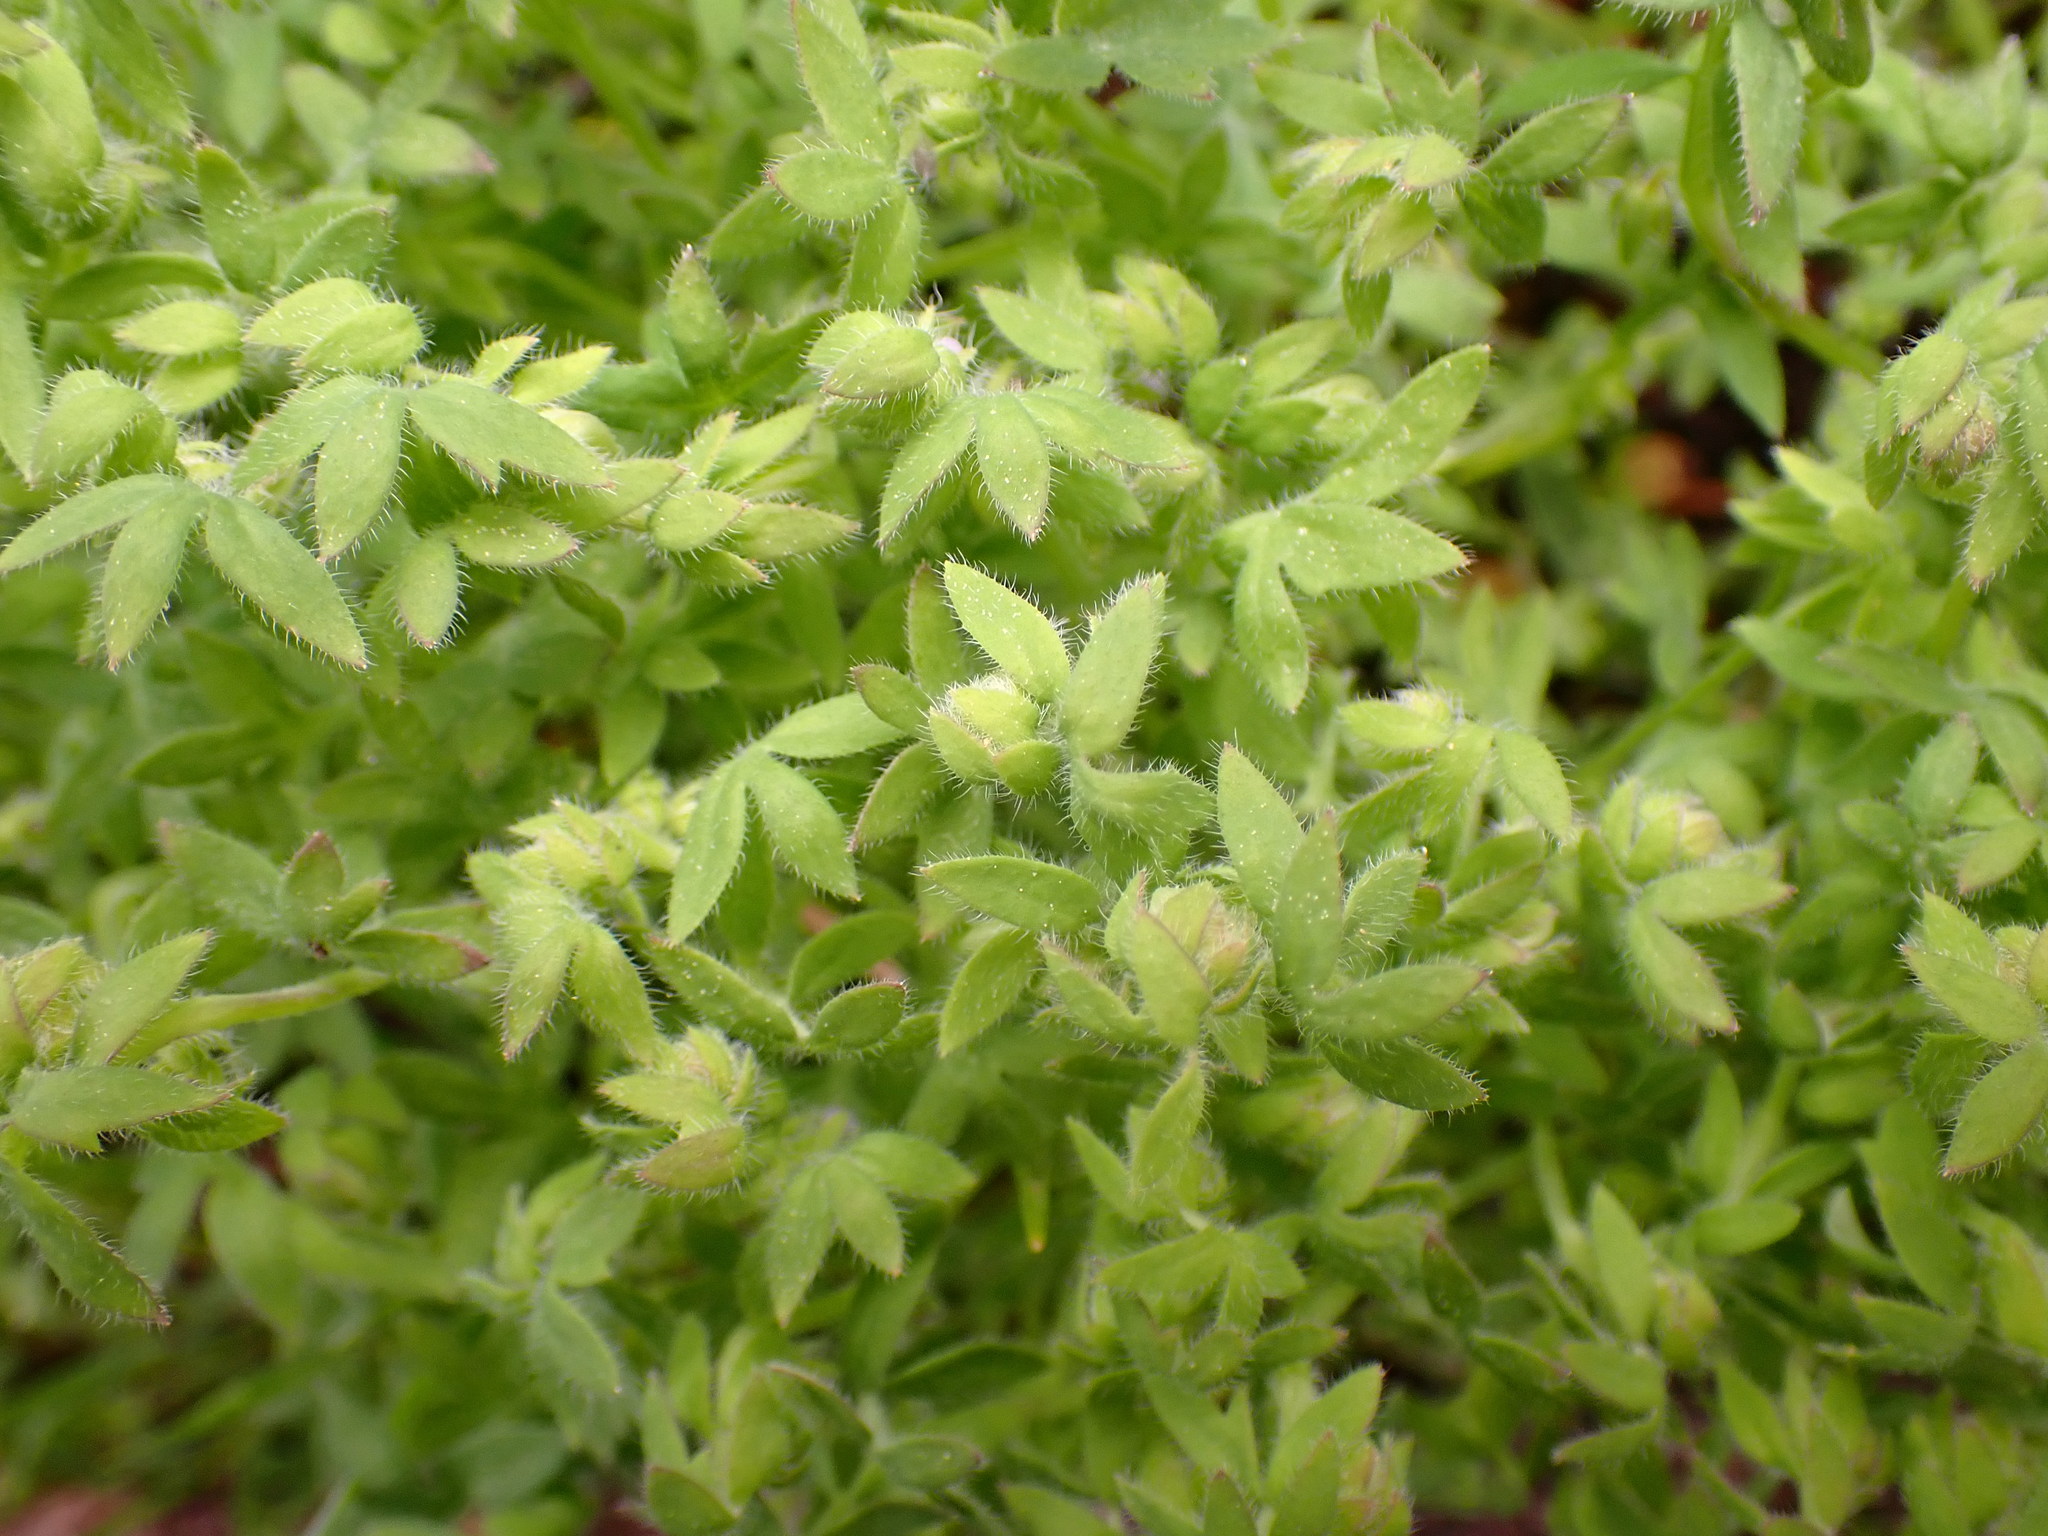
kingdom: Plantae
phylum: Tracheophyta
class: Magnoliopsida
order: Boraginales
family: Hydrophyllaceae
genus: Nemophila
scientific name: Nemophila breviflora
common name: Great basin baby-blue-eyes
